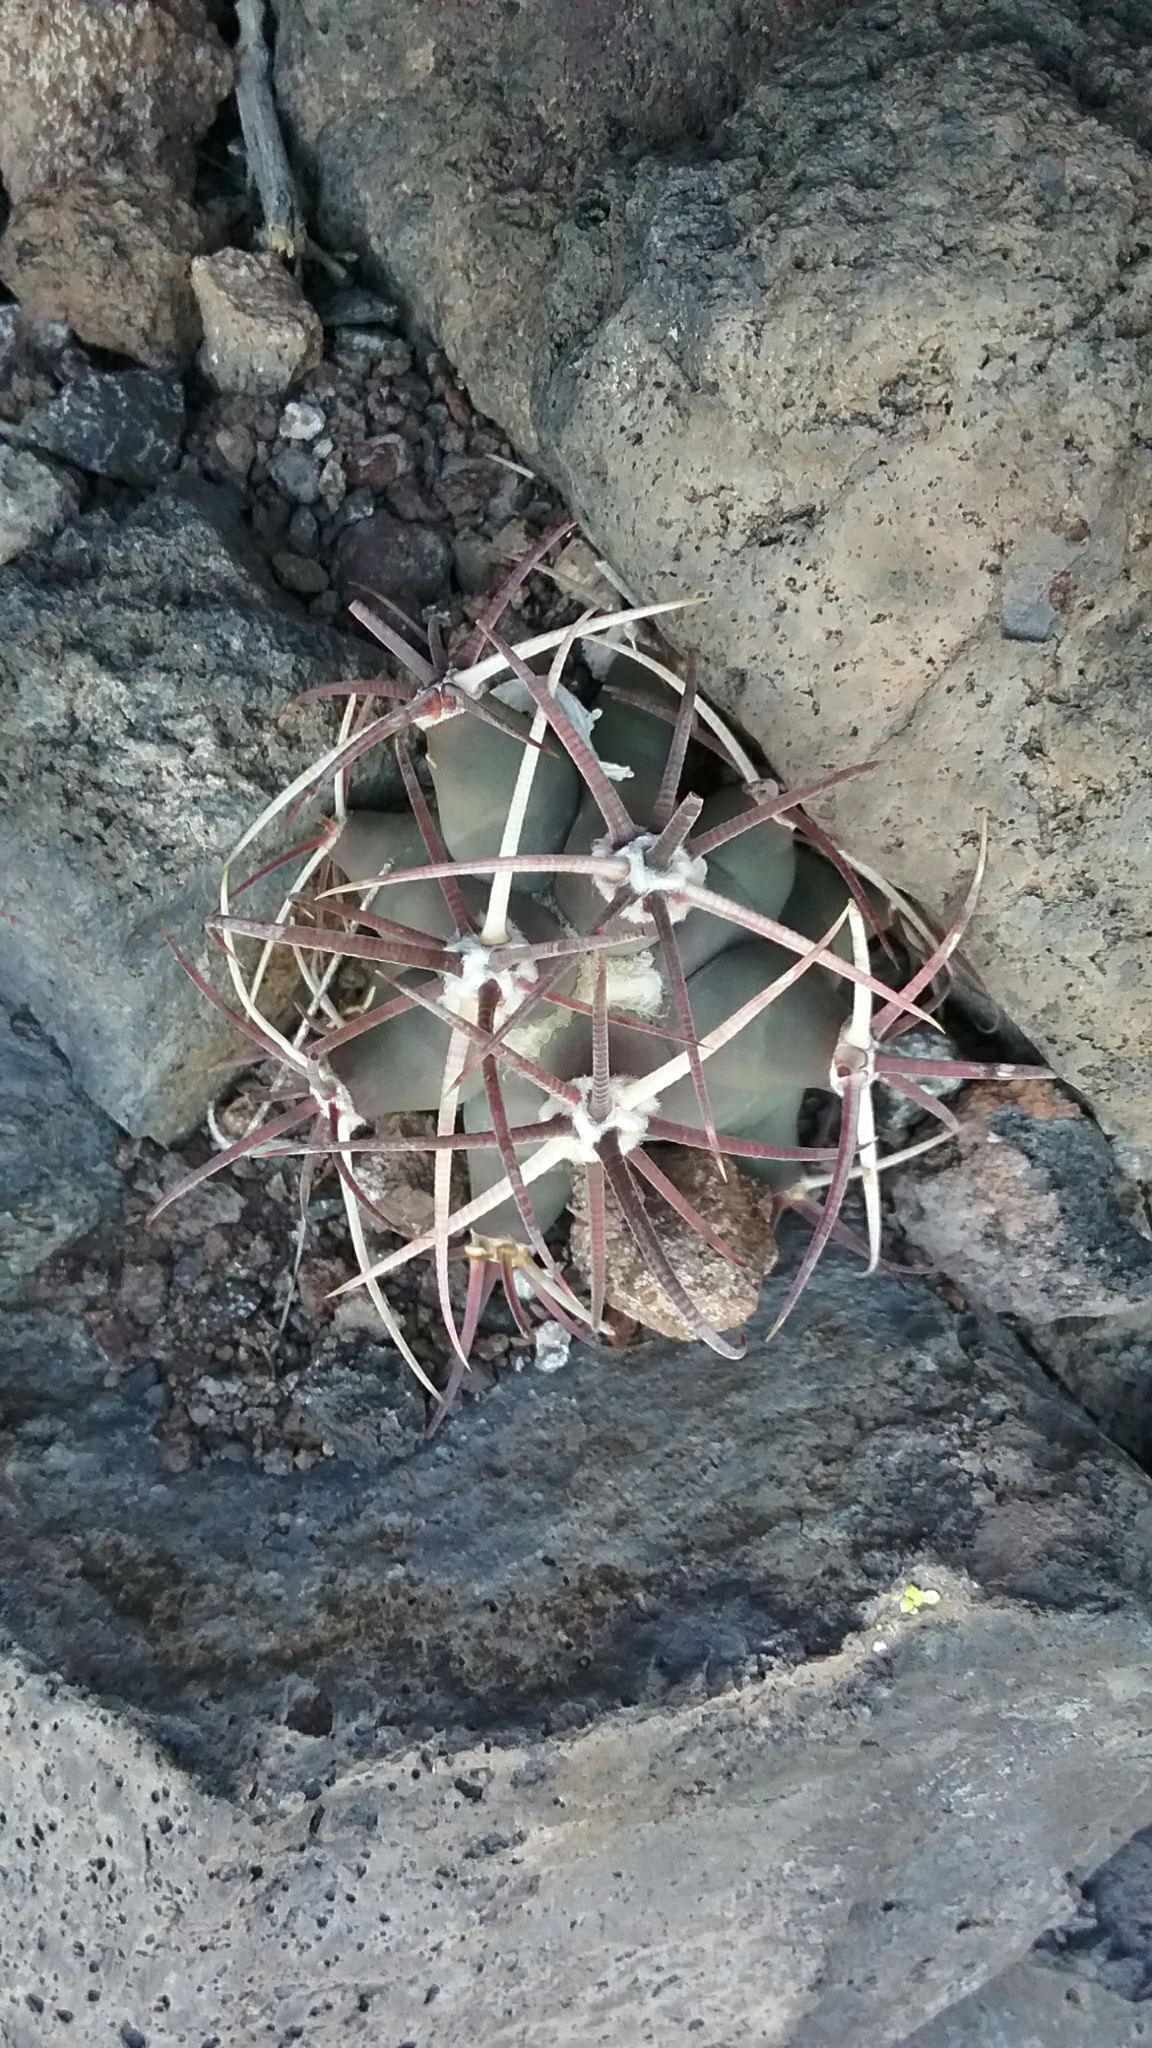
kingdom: Plantae
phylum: Tracheophyta
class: Magnoliopsida
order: Caryophyllales
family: Cactaceae
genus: Ferocactus
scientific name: Ferocactus emoryi
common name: Emory's barrel cactus
